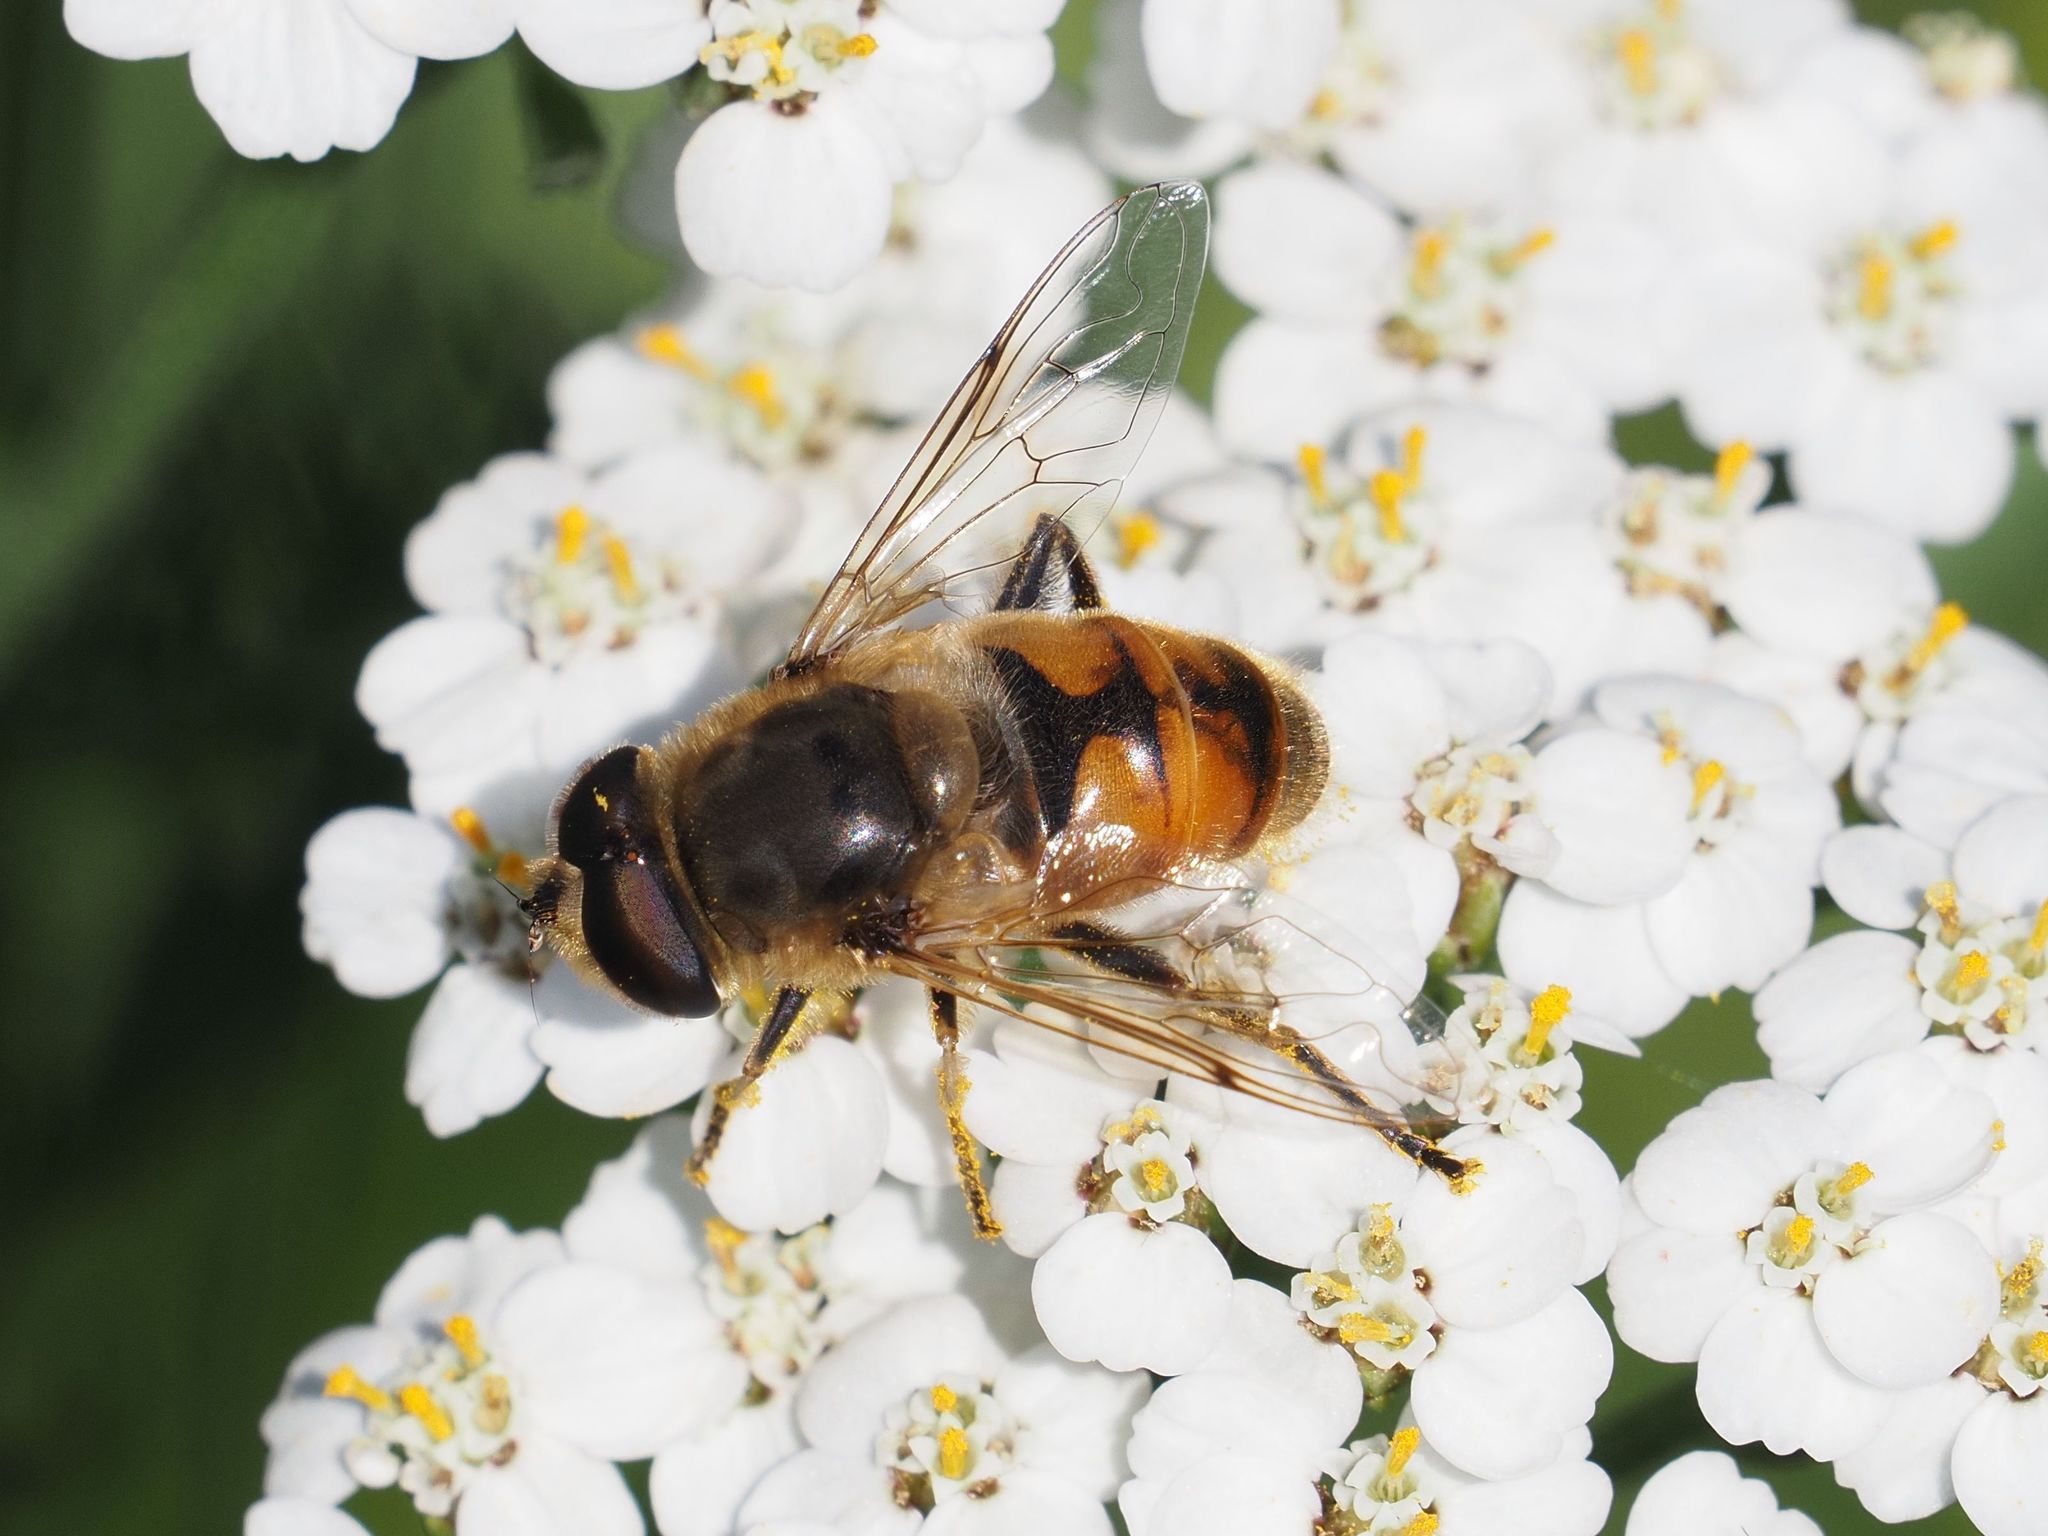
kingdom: Animalia
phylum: Arthropoda
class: Insecta
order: Diptera
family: Syrphidae
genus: Eristalis
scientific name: Eristalis tenax
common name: Drone fly
